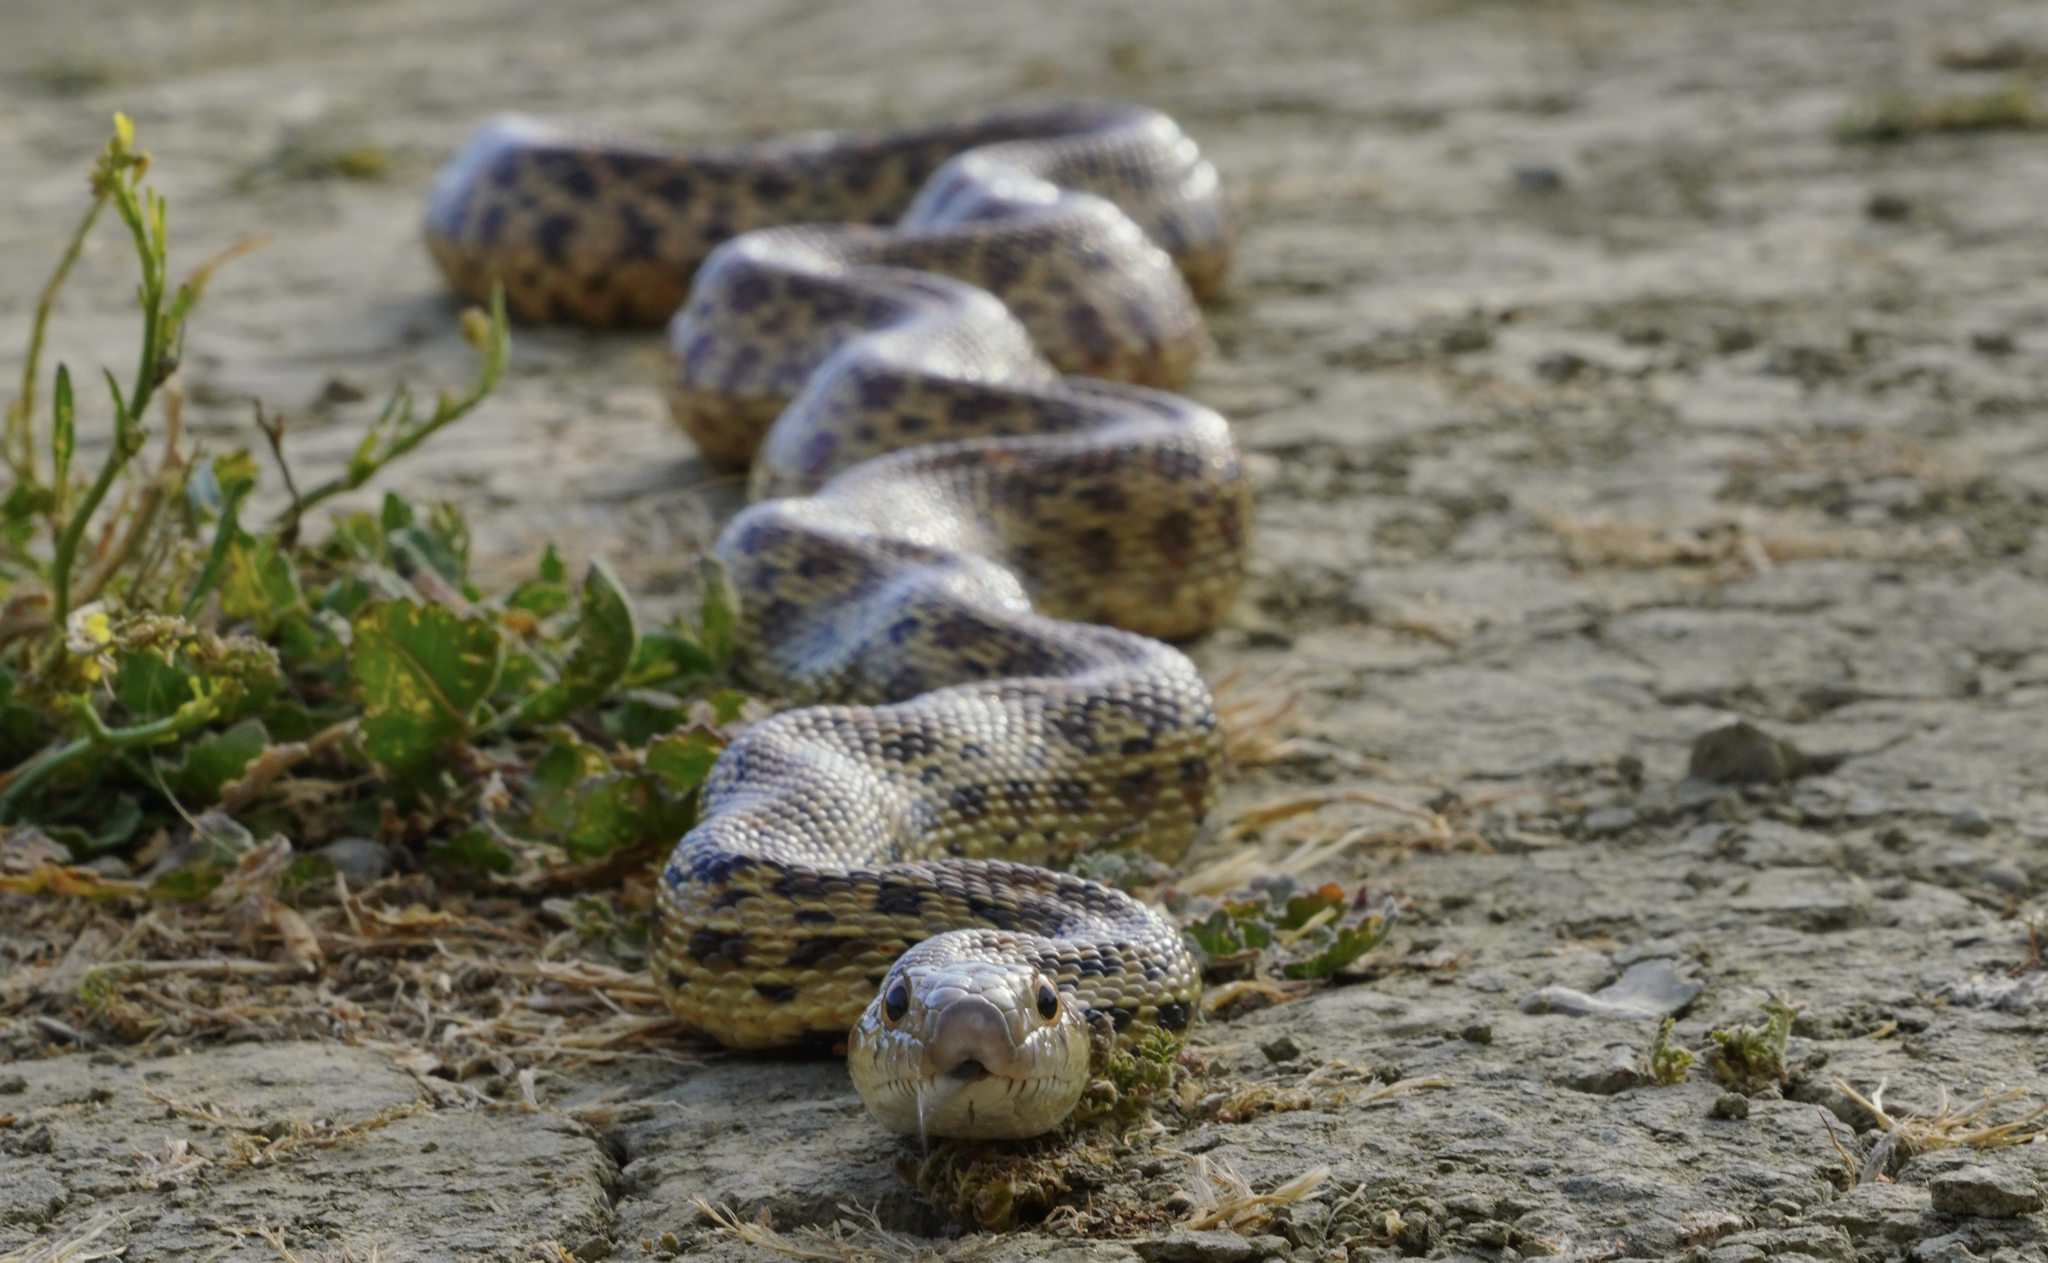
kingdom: Animalia
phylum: Chordata
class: Squamata
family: Colubridae
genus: Pituophis
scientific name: Pituophis catenifer
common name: Gopher snake
